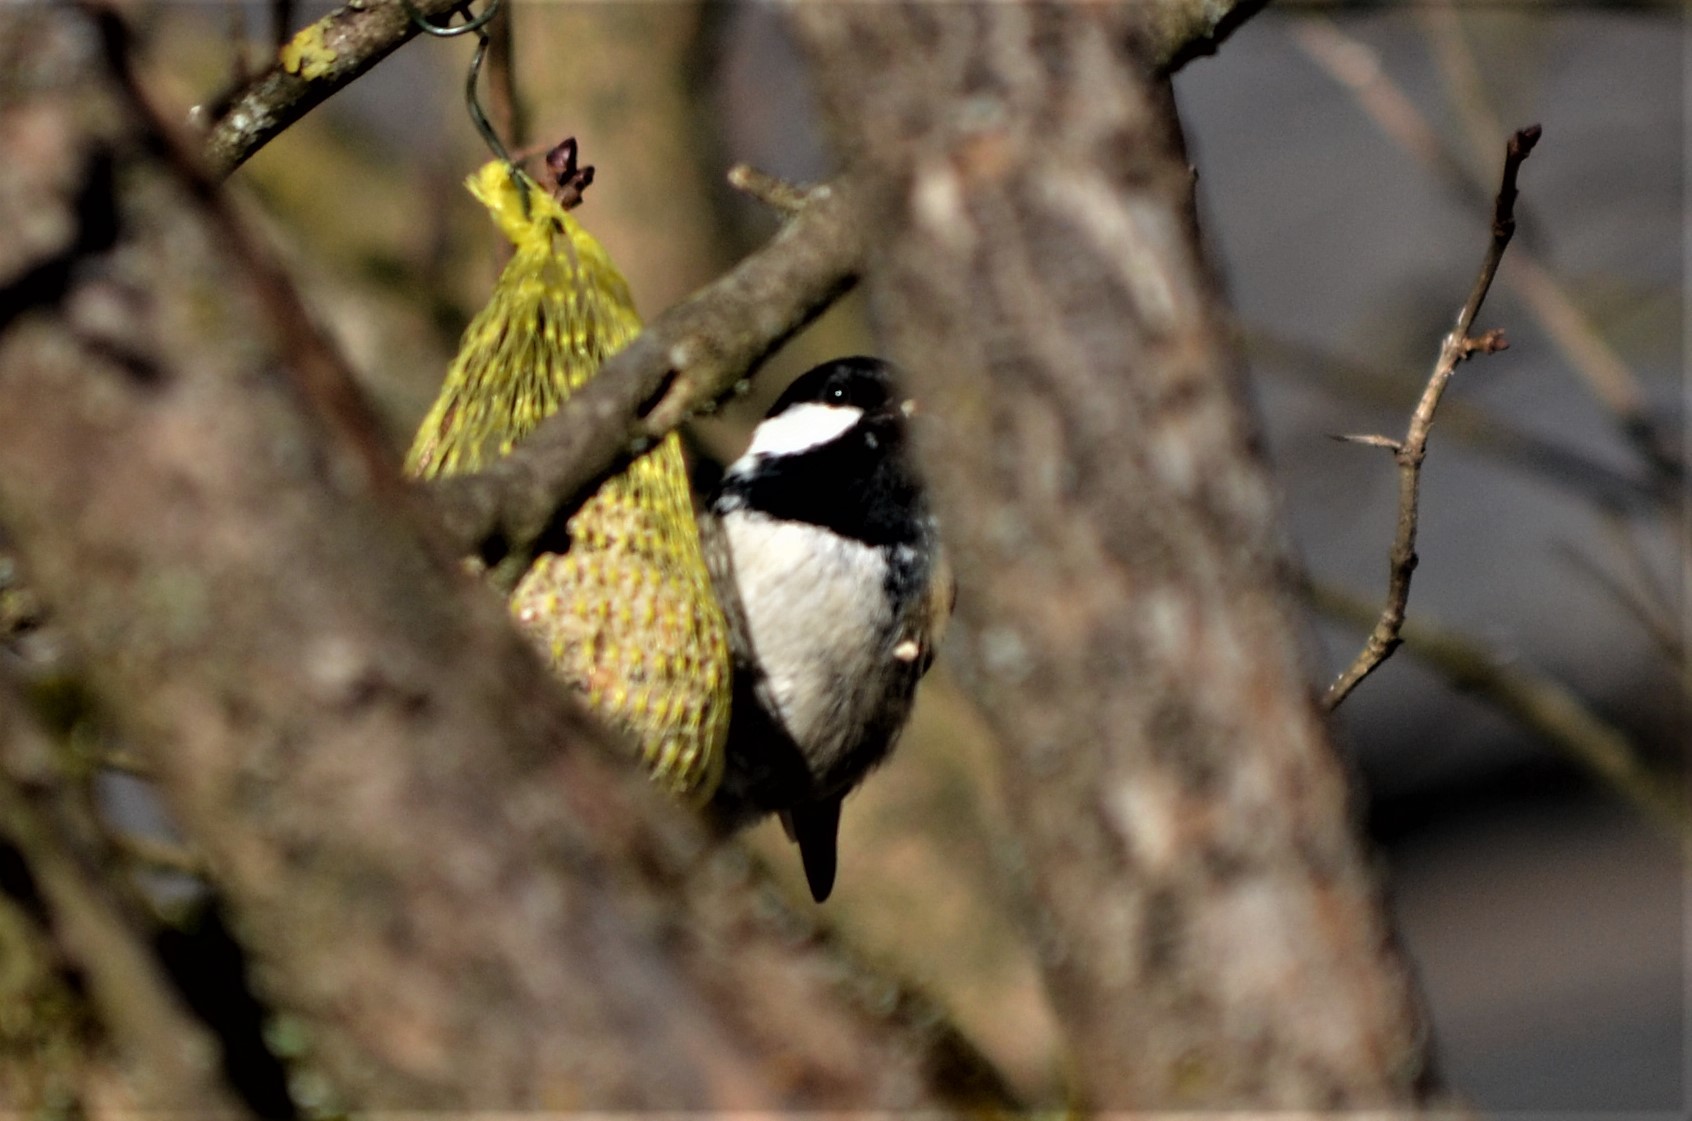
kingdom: Animalia
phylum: Chordata
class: Aves
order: Passeriformes
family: Paridae
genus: Periparus
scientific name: Periparus ater
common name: Coal tit
